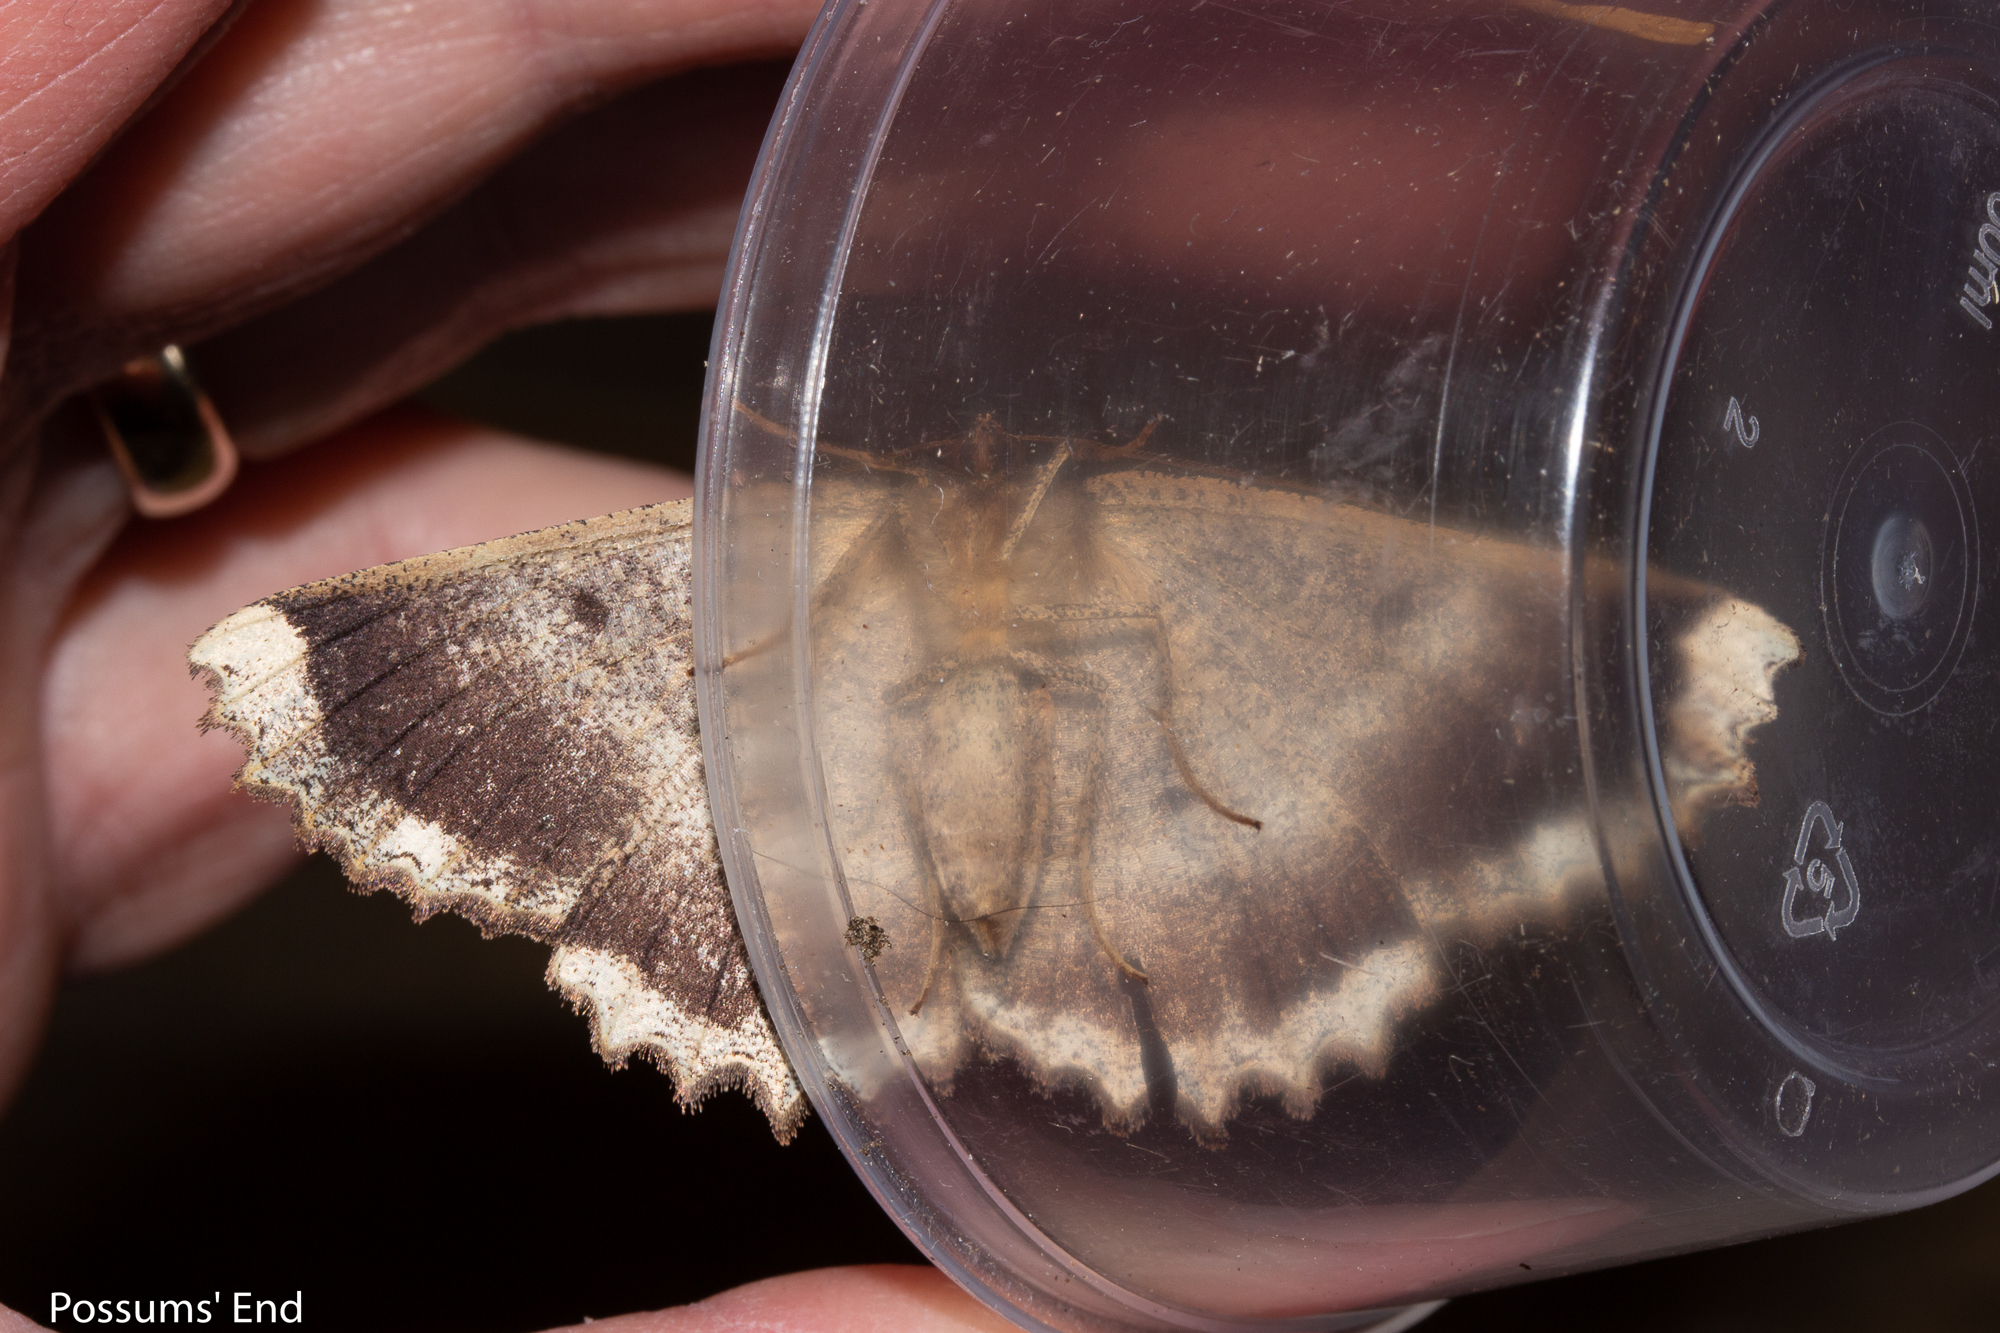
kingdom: Animalia
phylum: Arthropoda
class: Insecta
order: Lepidoptera
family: Geometridae
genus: Gellonia
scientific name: Gellonia dejectaria
